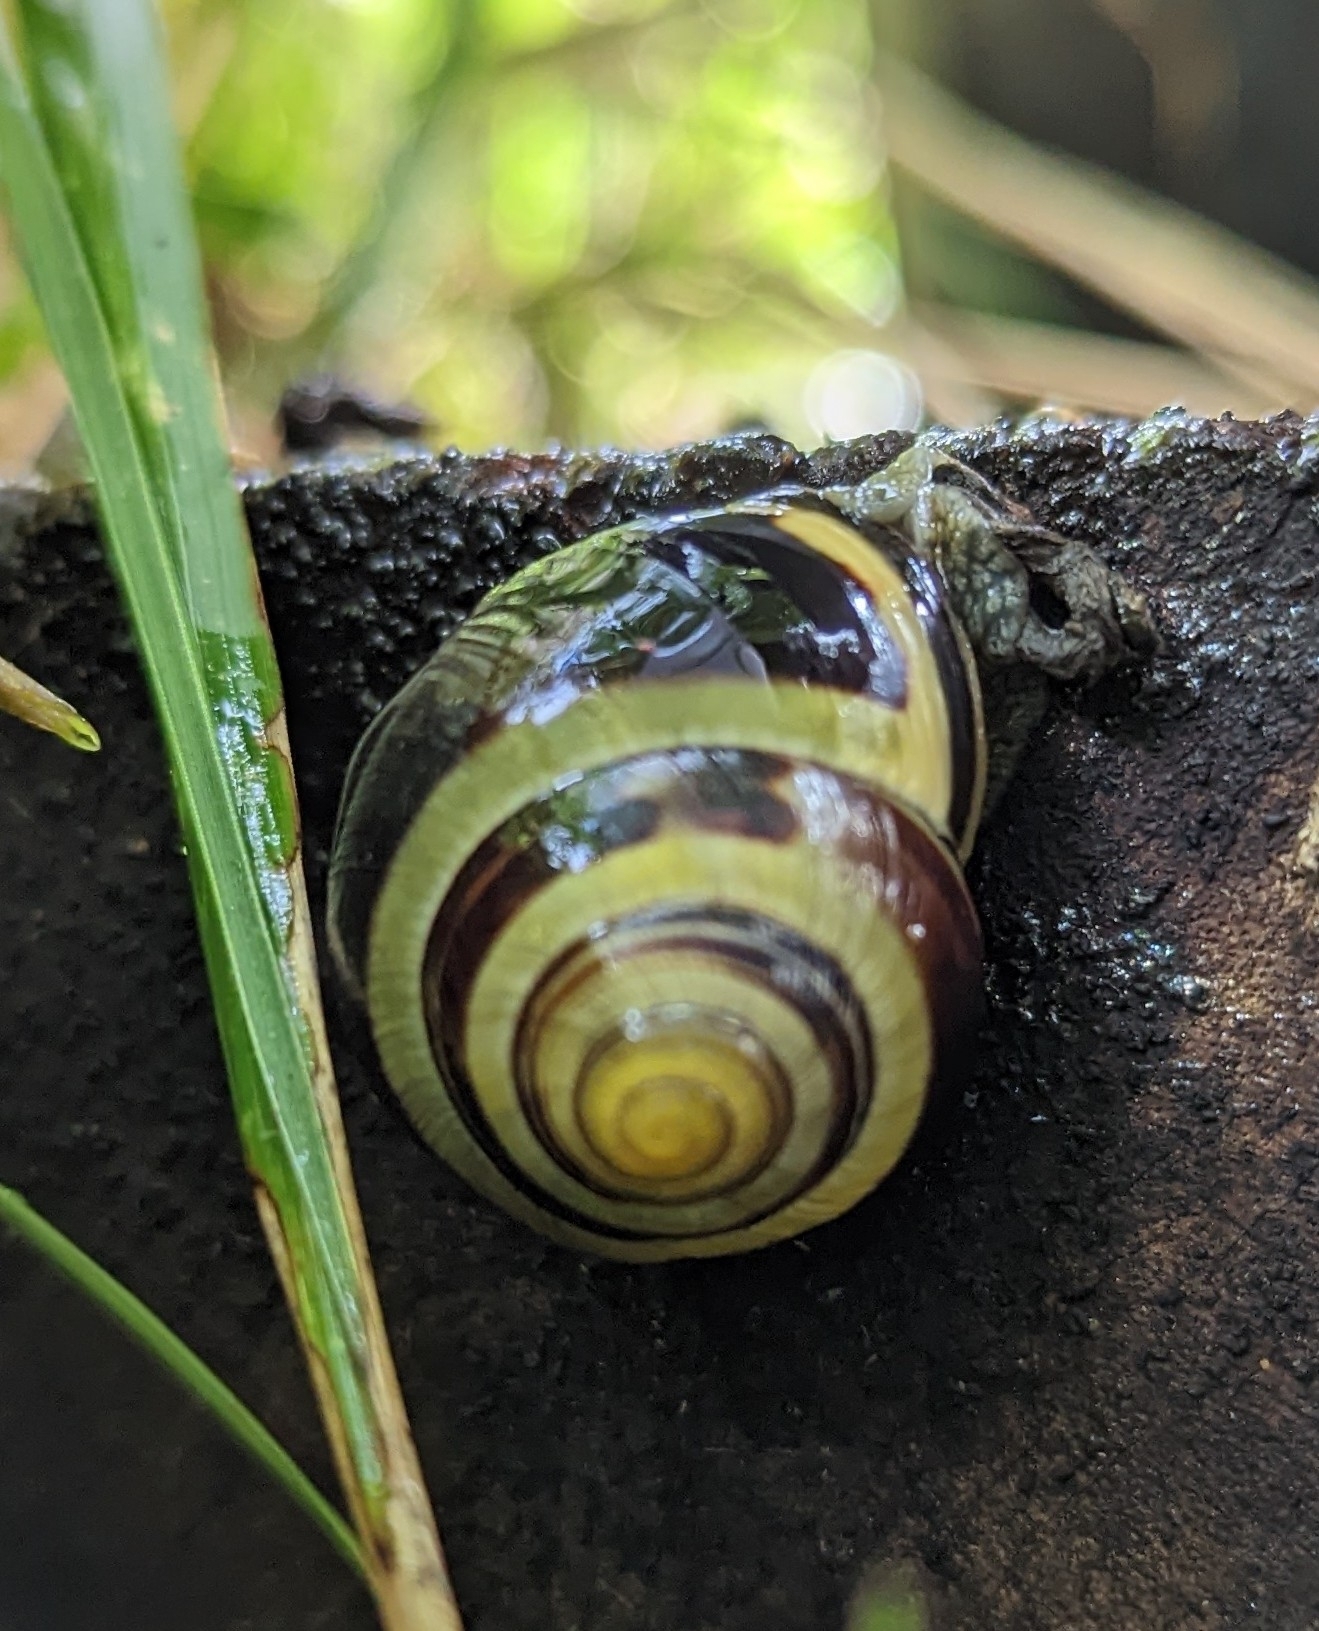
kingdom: Animalia
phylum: Mollusca
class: Gastropoda
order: Stylommatophora
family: Helicidae
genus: Cepaea
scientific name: Cepaea nemoralis
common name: Grovesnail
